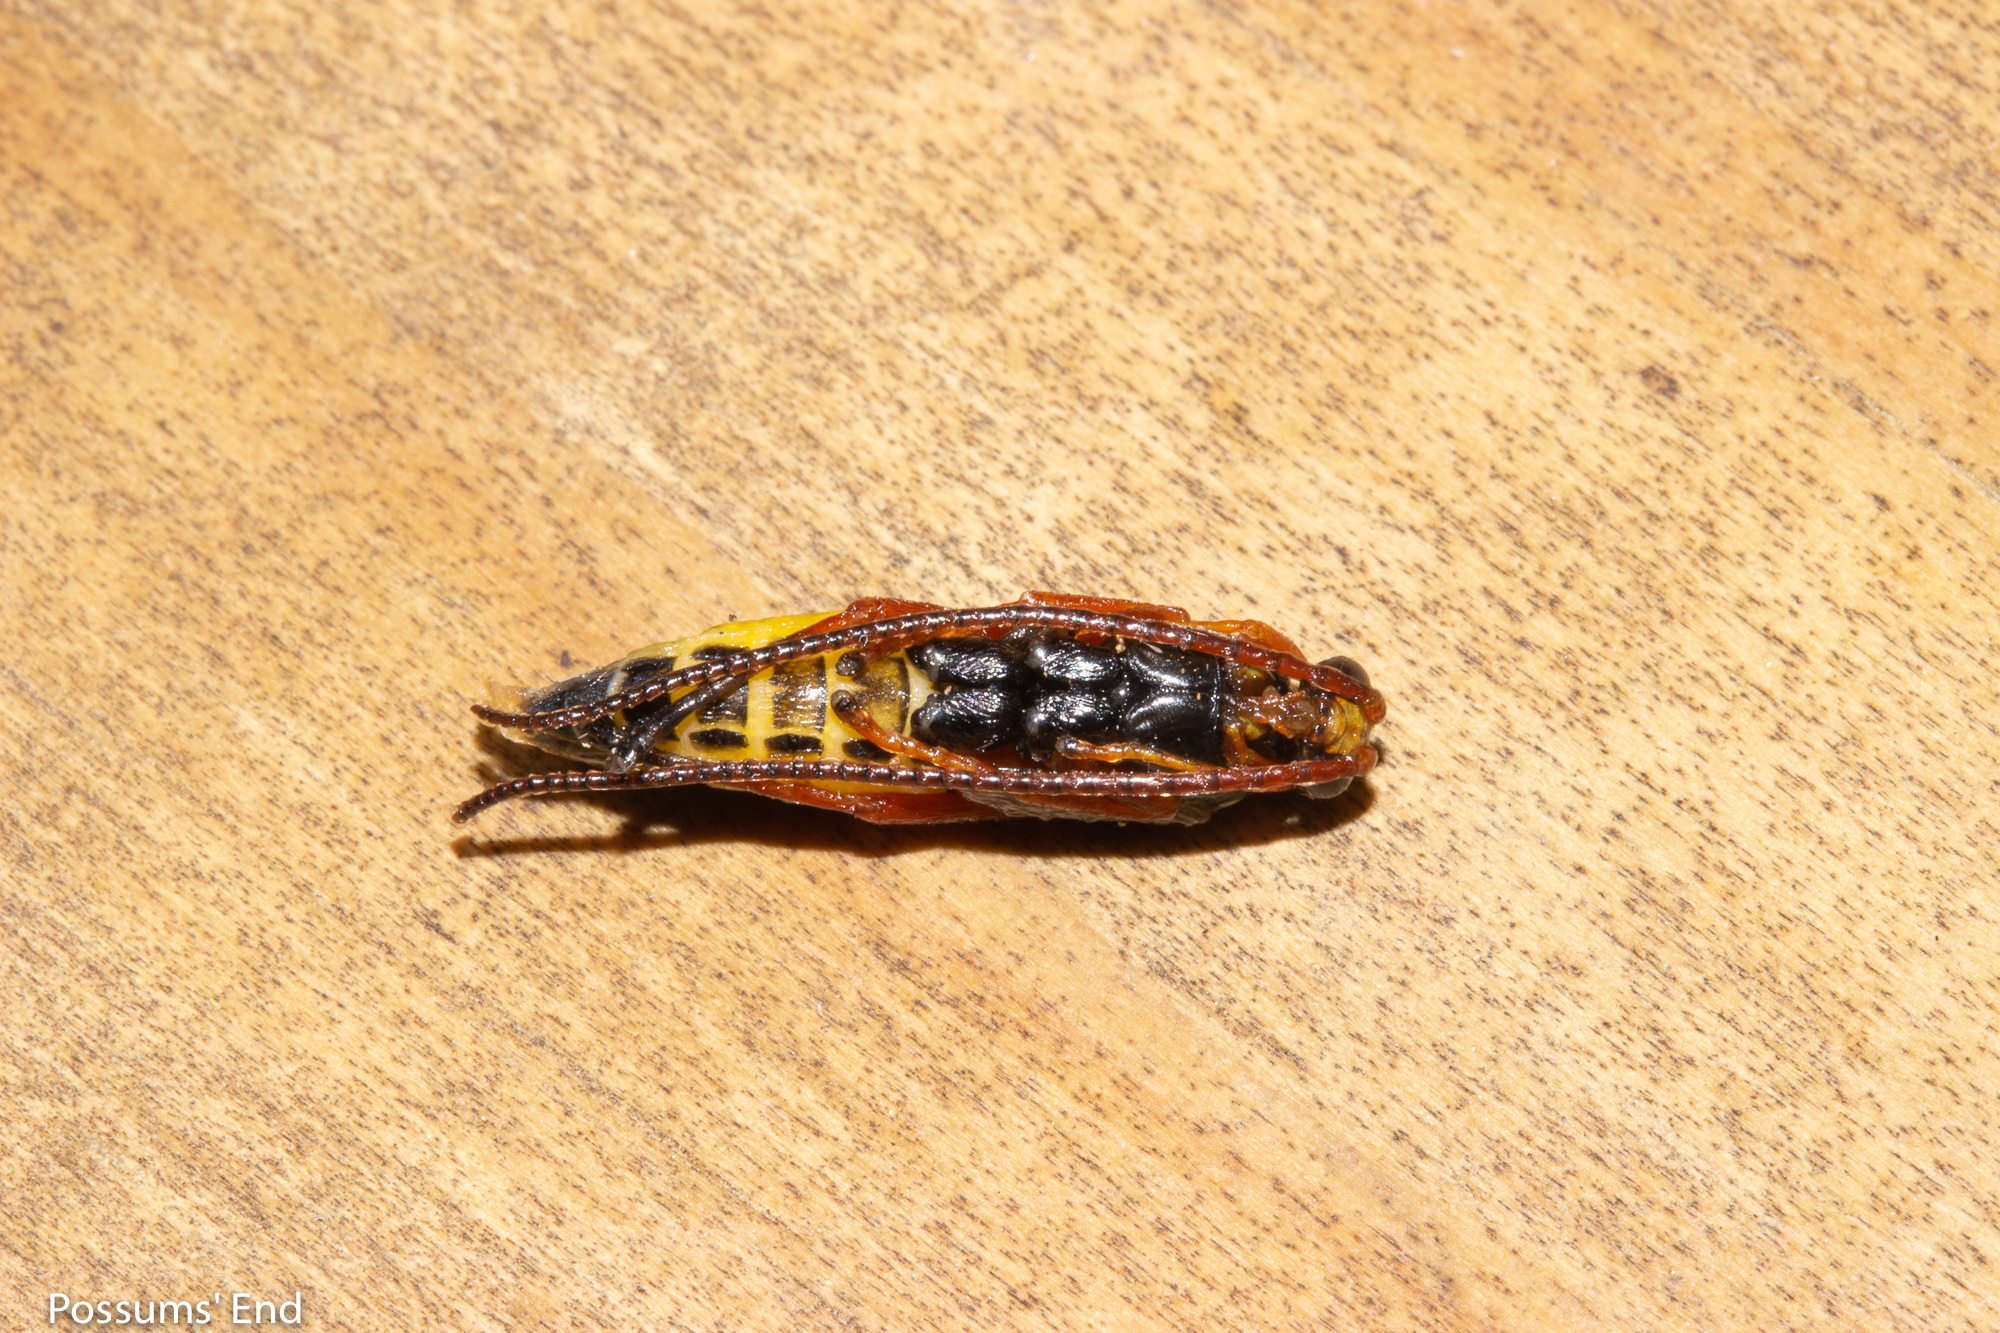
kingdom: Animalia
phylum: Arthropoda
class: Insecta
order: Hymenoptera
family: Ichneumonidae
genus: Echthromorpha
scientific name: Echthromorpha intricatoria
